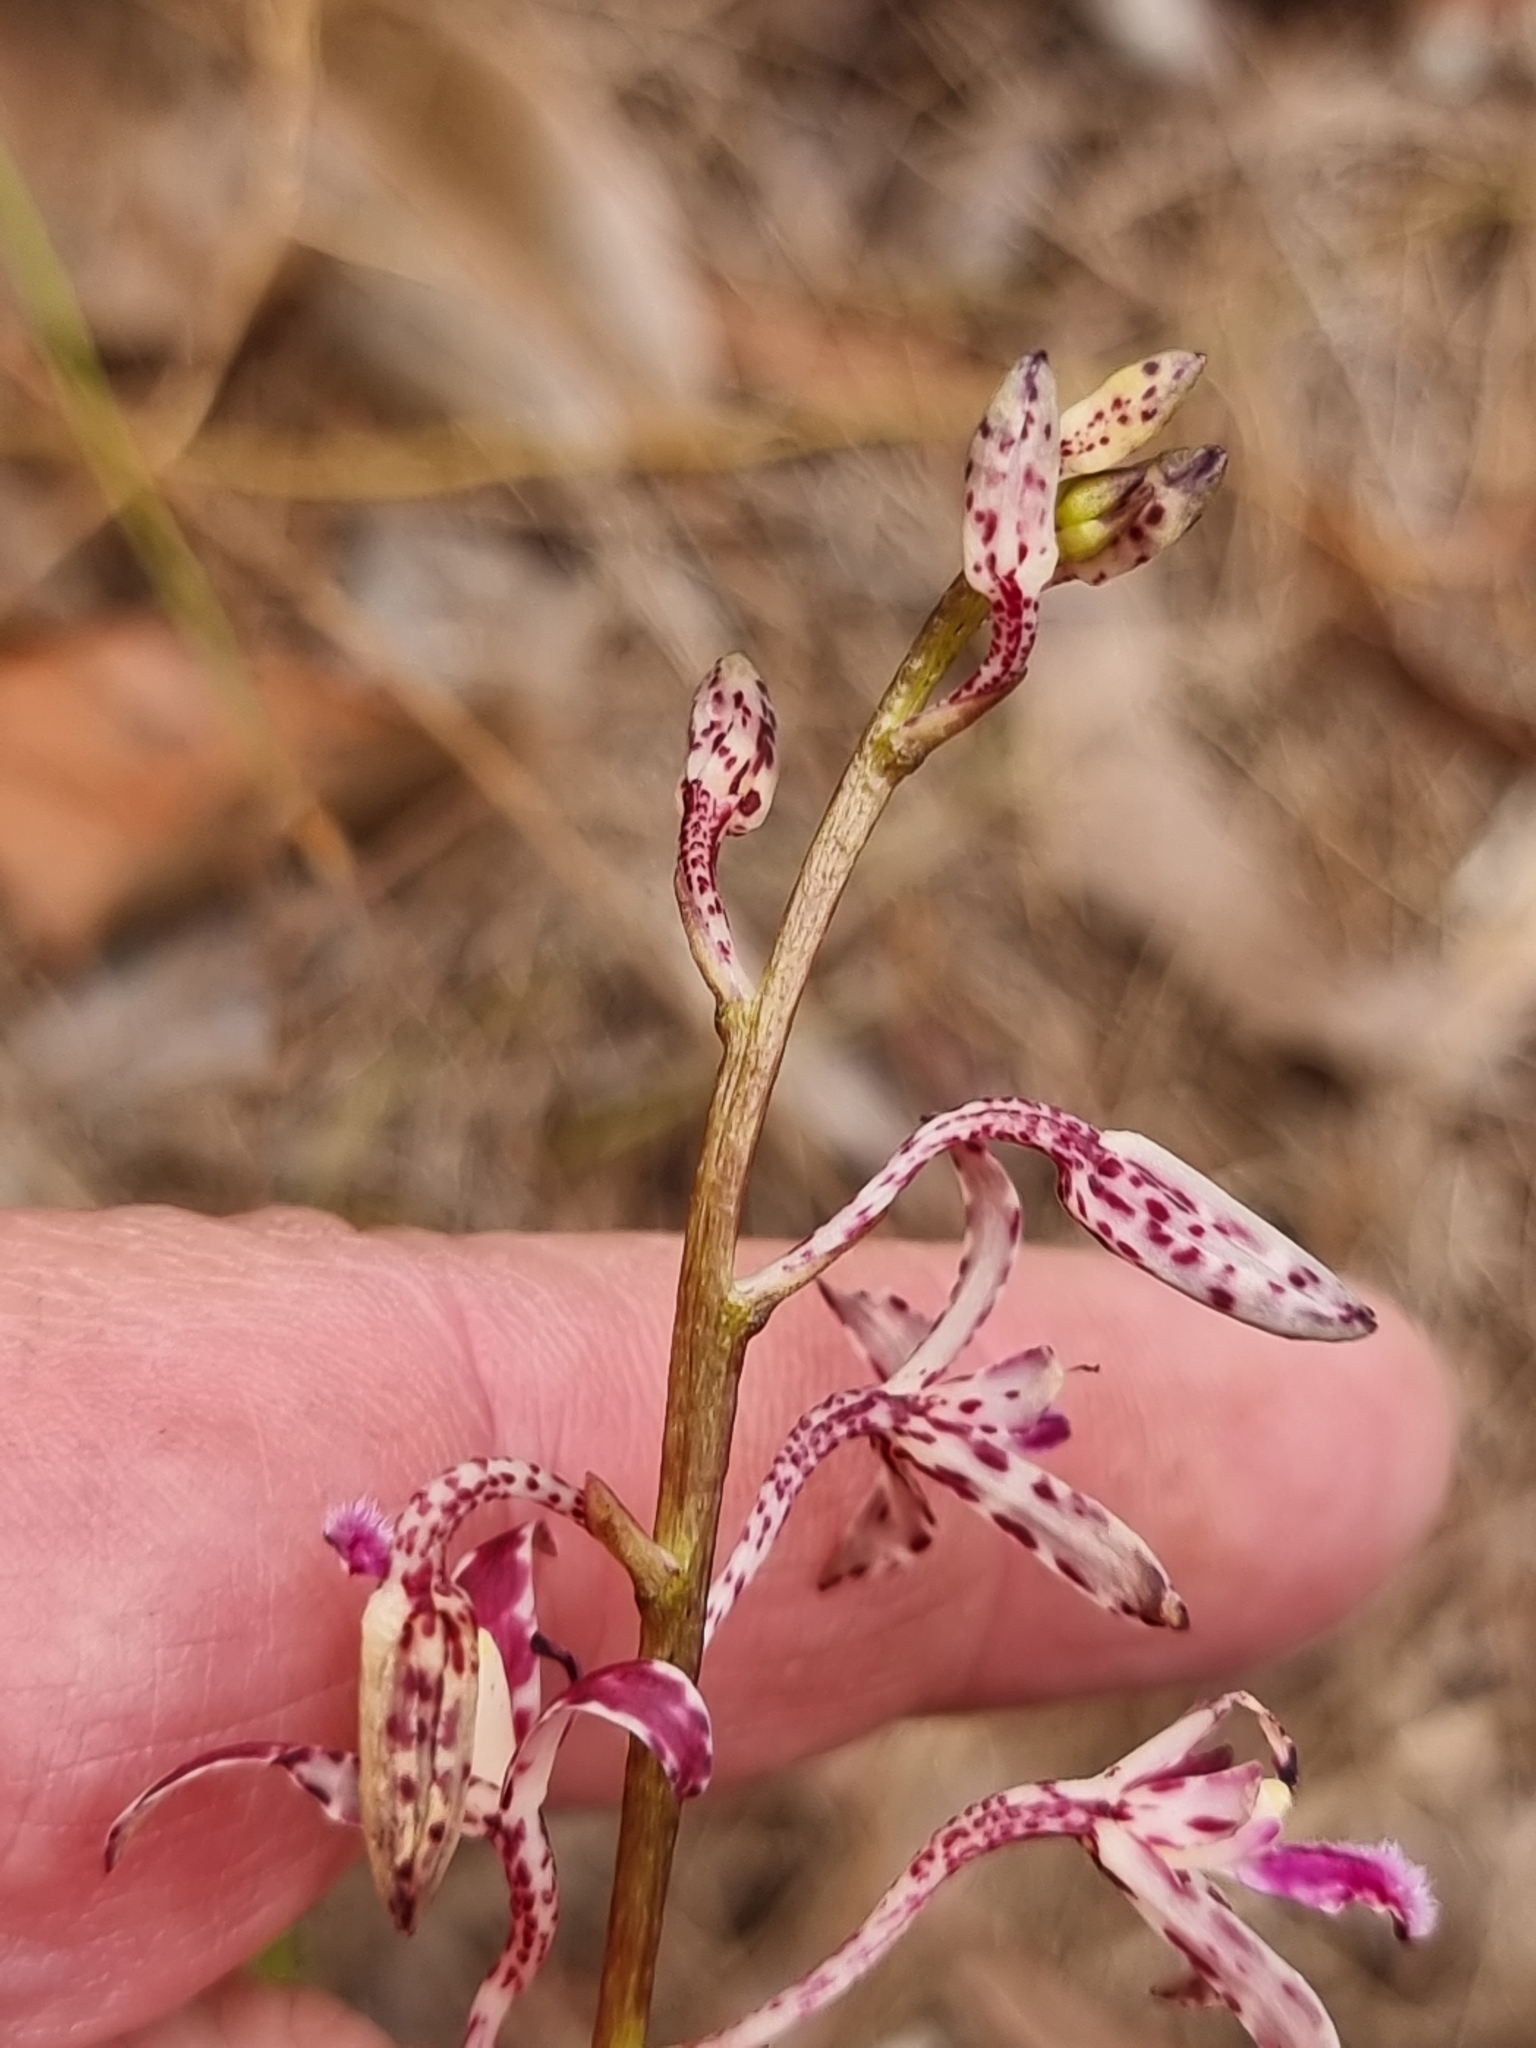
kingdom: Plantae
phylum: Tracheophyta
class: Liliopsida
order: Asparagales
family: Orchidaceae
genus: Dipodium
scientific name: Dipodium variegatum
